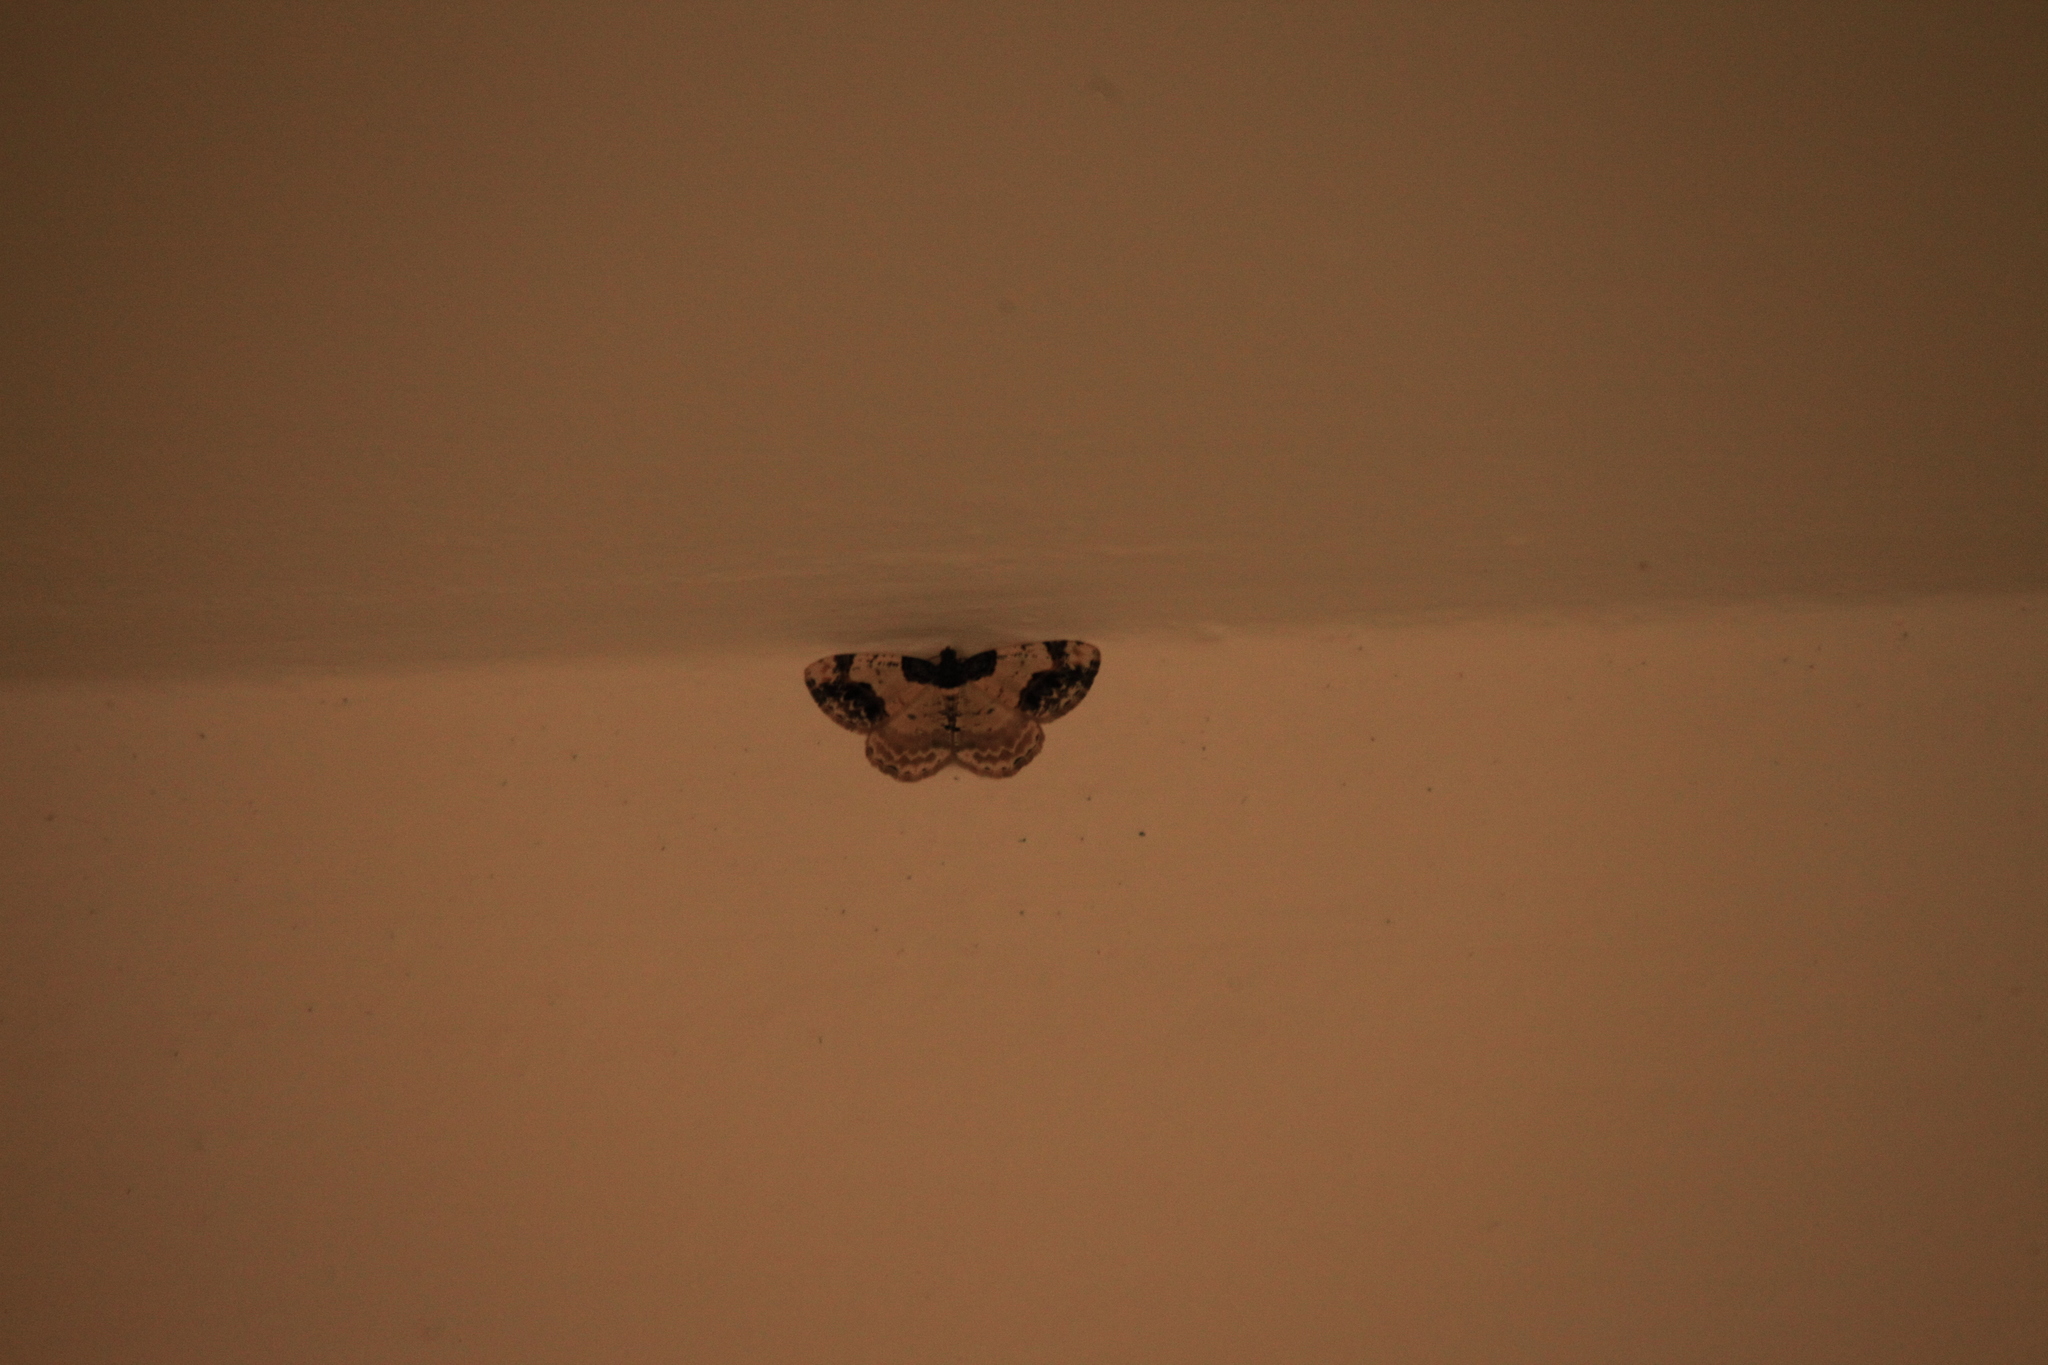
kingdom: Animalia
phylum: Arthropoda
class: Insecta
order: Lepidoptera
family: Geometridae
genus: Ligdia
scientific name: Ligdia adustata
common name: Scorched carpet
